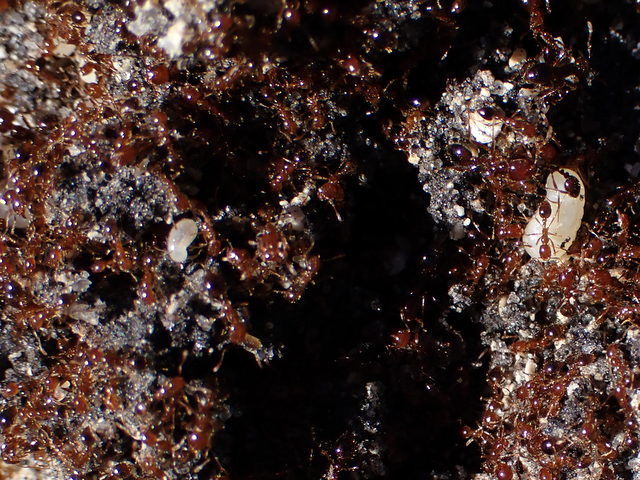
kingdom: Animalia
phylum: Arthropoda
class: Insecta
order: Hymenoptera
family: Formicidae
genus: Solenopsis
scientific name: Solenopsis invicta
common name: Red imported fire ant
